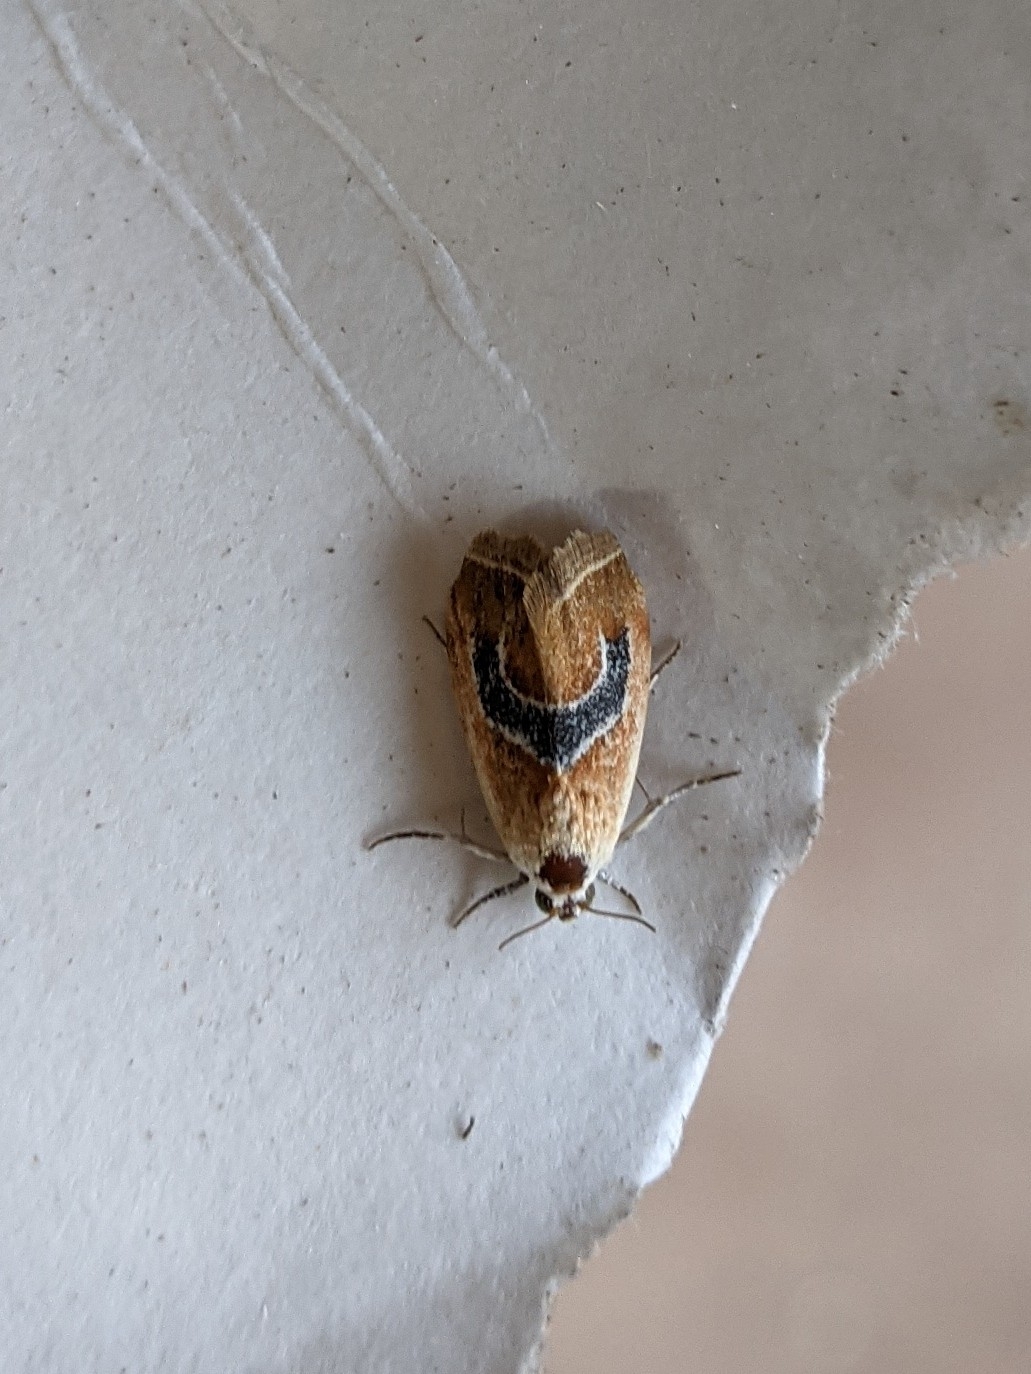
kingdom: Animalia
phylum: Arthropoda
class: Insecta
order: Lepidoptera
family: Noctuidae
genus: Ponometia
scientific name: Ponometia venustula
